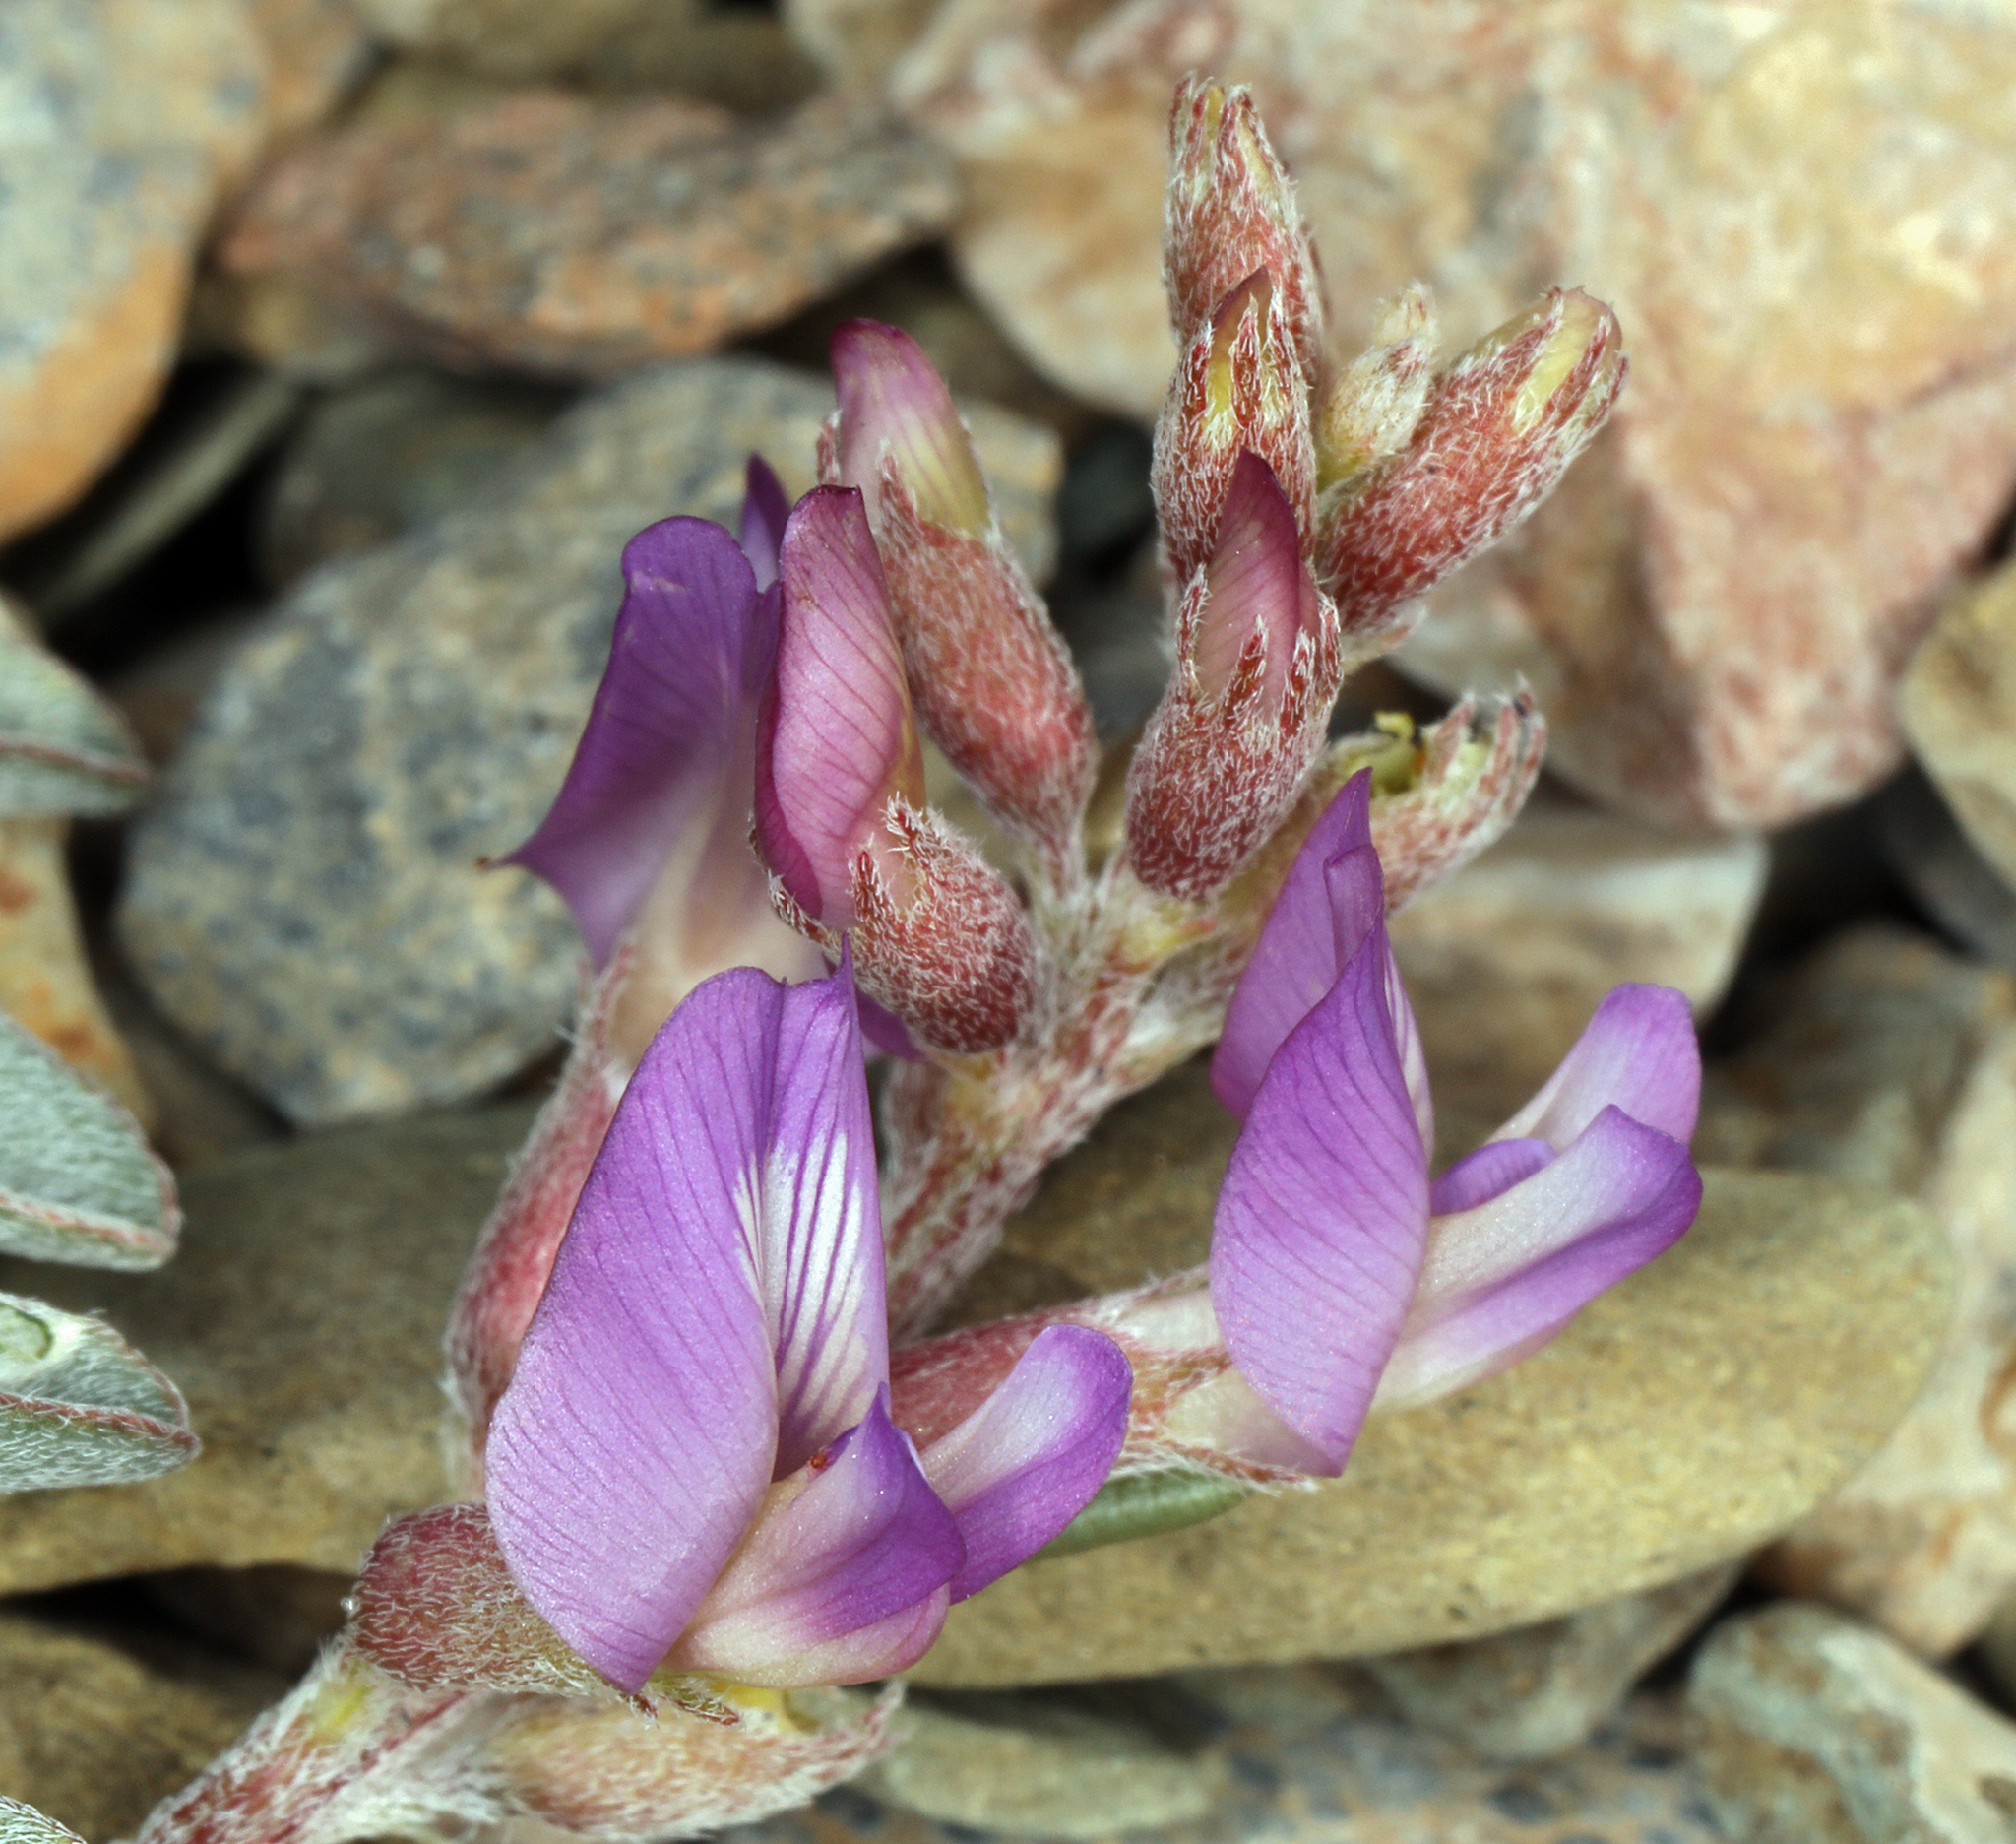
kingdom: Plantae
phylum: Tracheophyta
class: Magnoliopsida
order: Fabales
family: Fabaceae
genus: Astragalus
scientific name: Astragalus lentiginosus
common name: Freckled milkvetch
